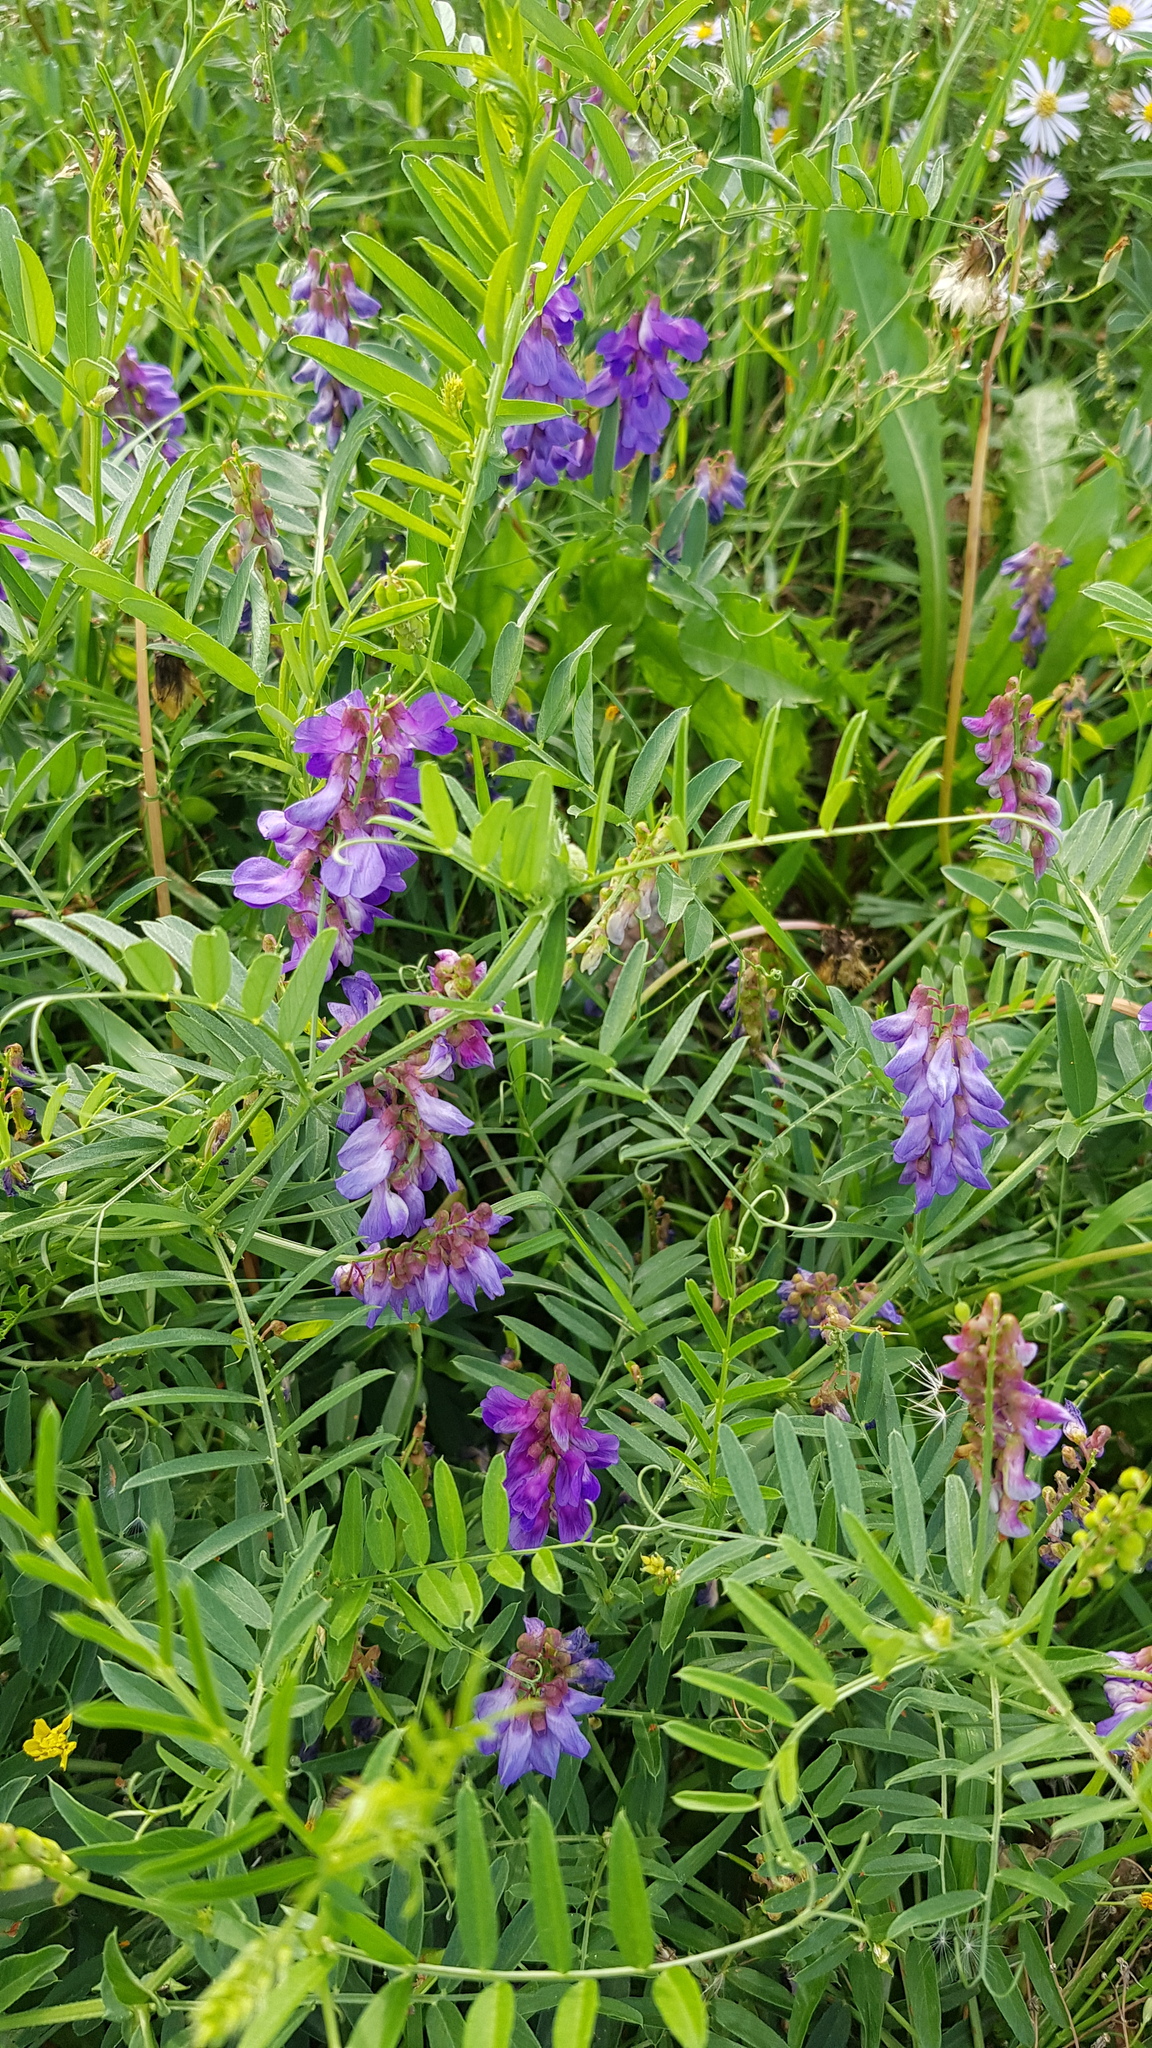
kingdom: Plantae
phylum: Tracheophyta
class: Magnoliopsida
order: Fabales
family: Fabaceae
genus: Vicia
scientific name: Vicia amoena
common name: Cheder ebs
